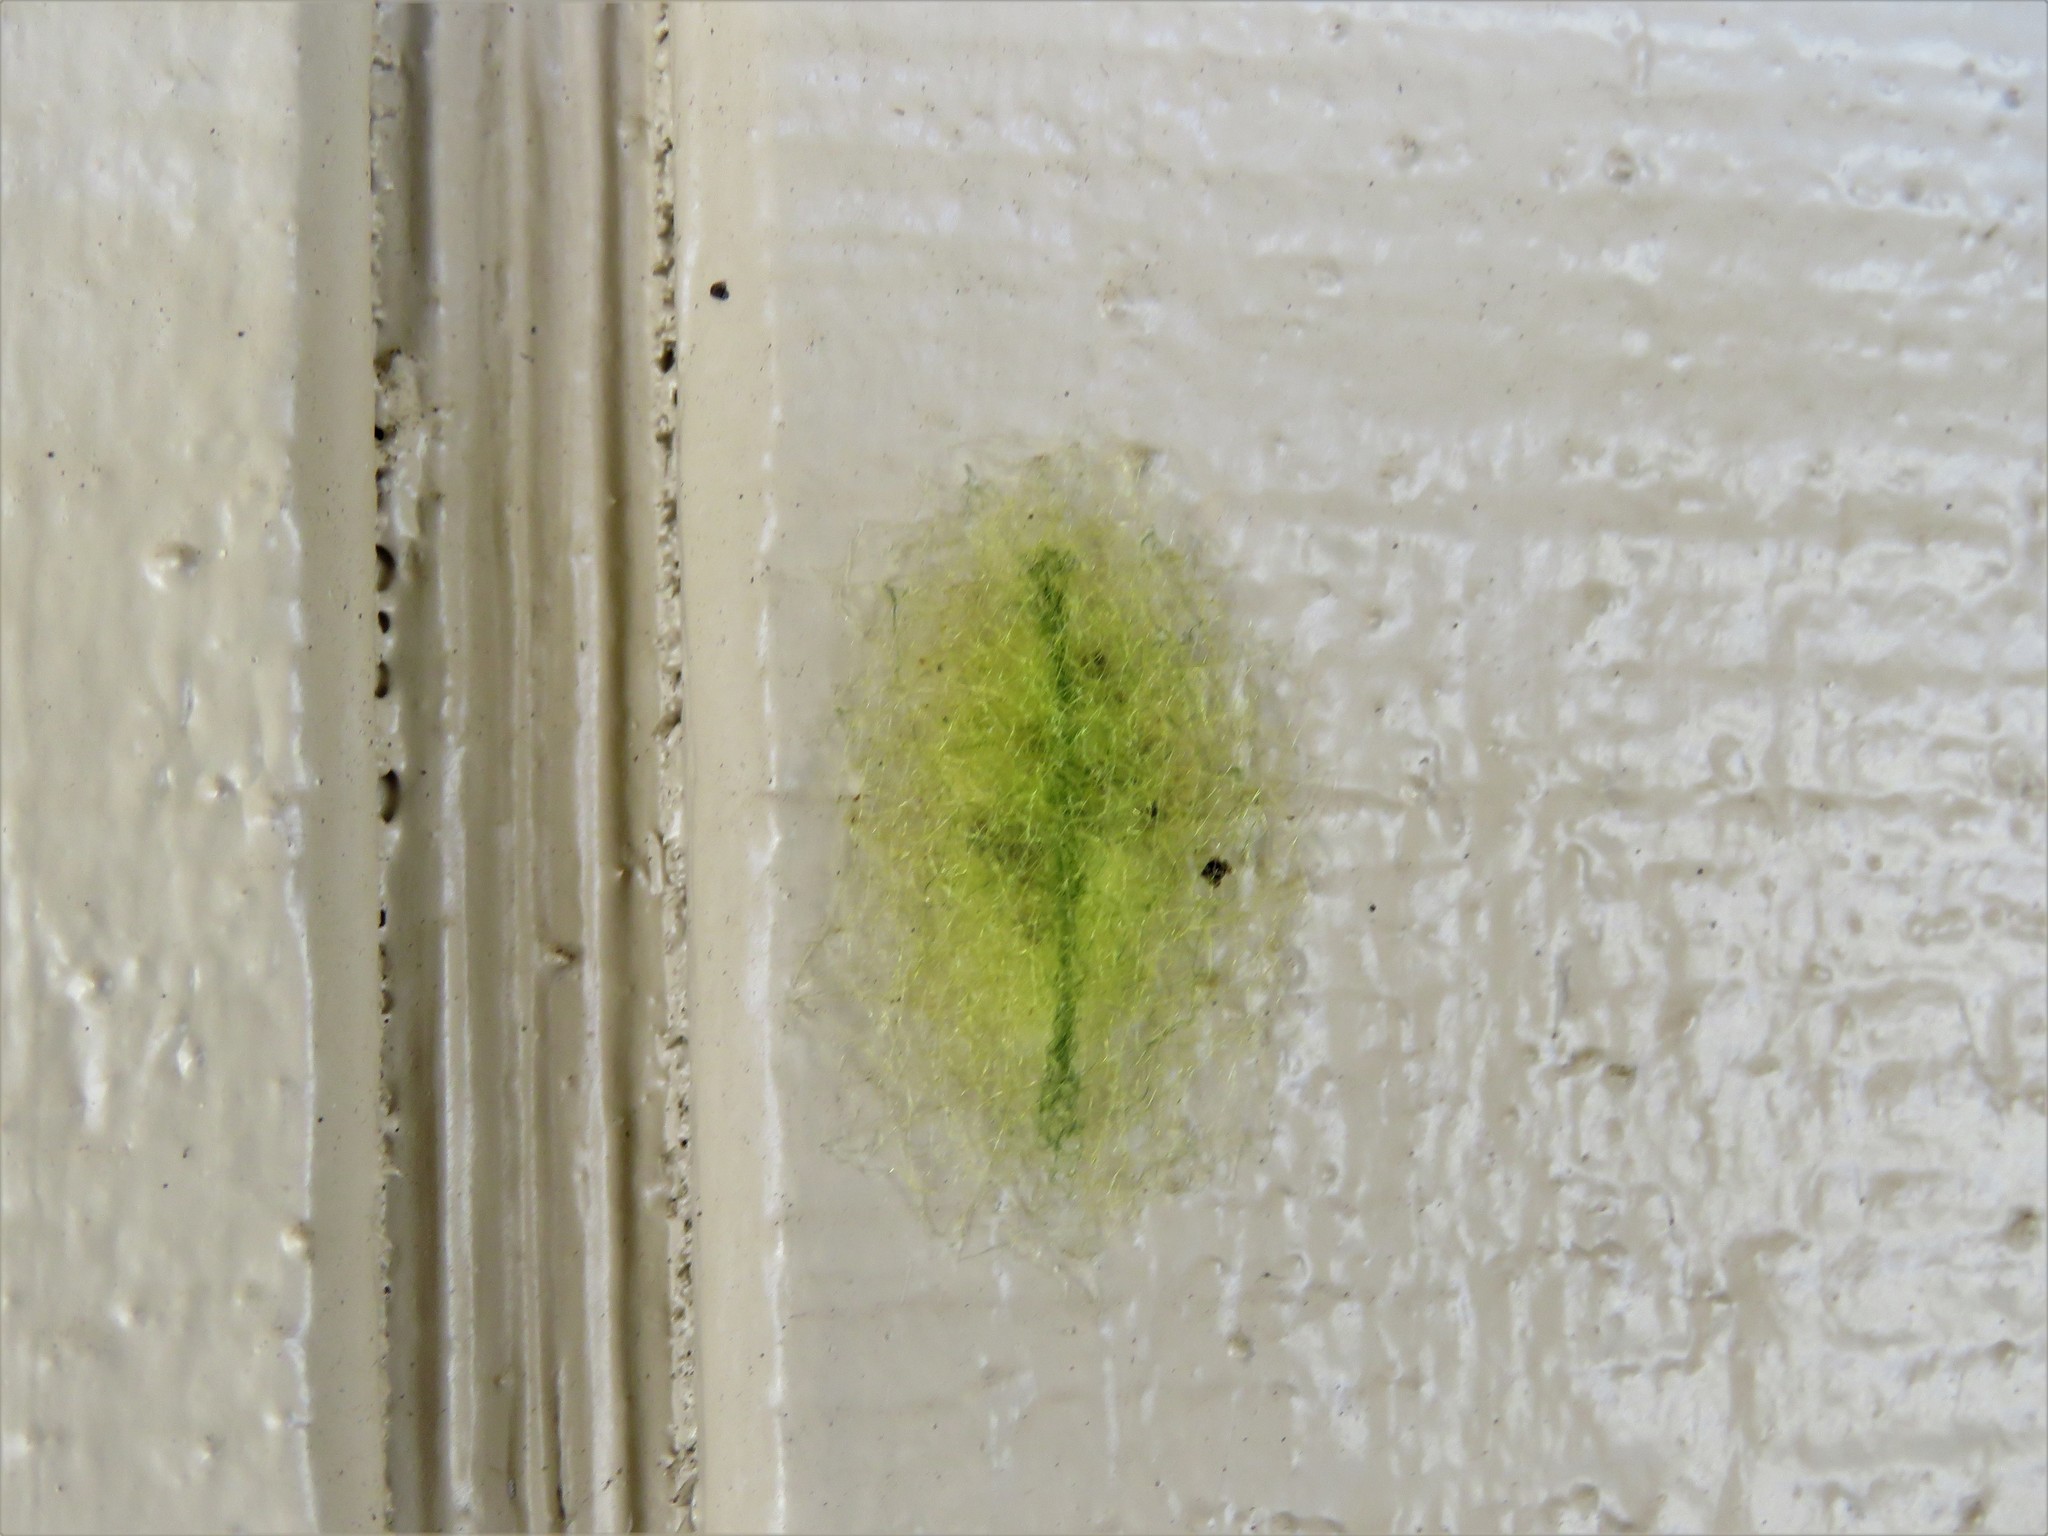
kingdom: Animalia
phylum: Arthropoda
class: Arachnida
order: Araneae
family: Araneidae
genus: Gasteracantha
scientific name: Gasteracantha cancriformis
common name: Orb weavers
